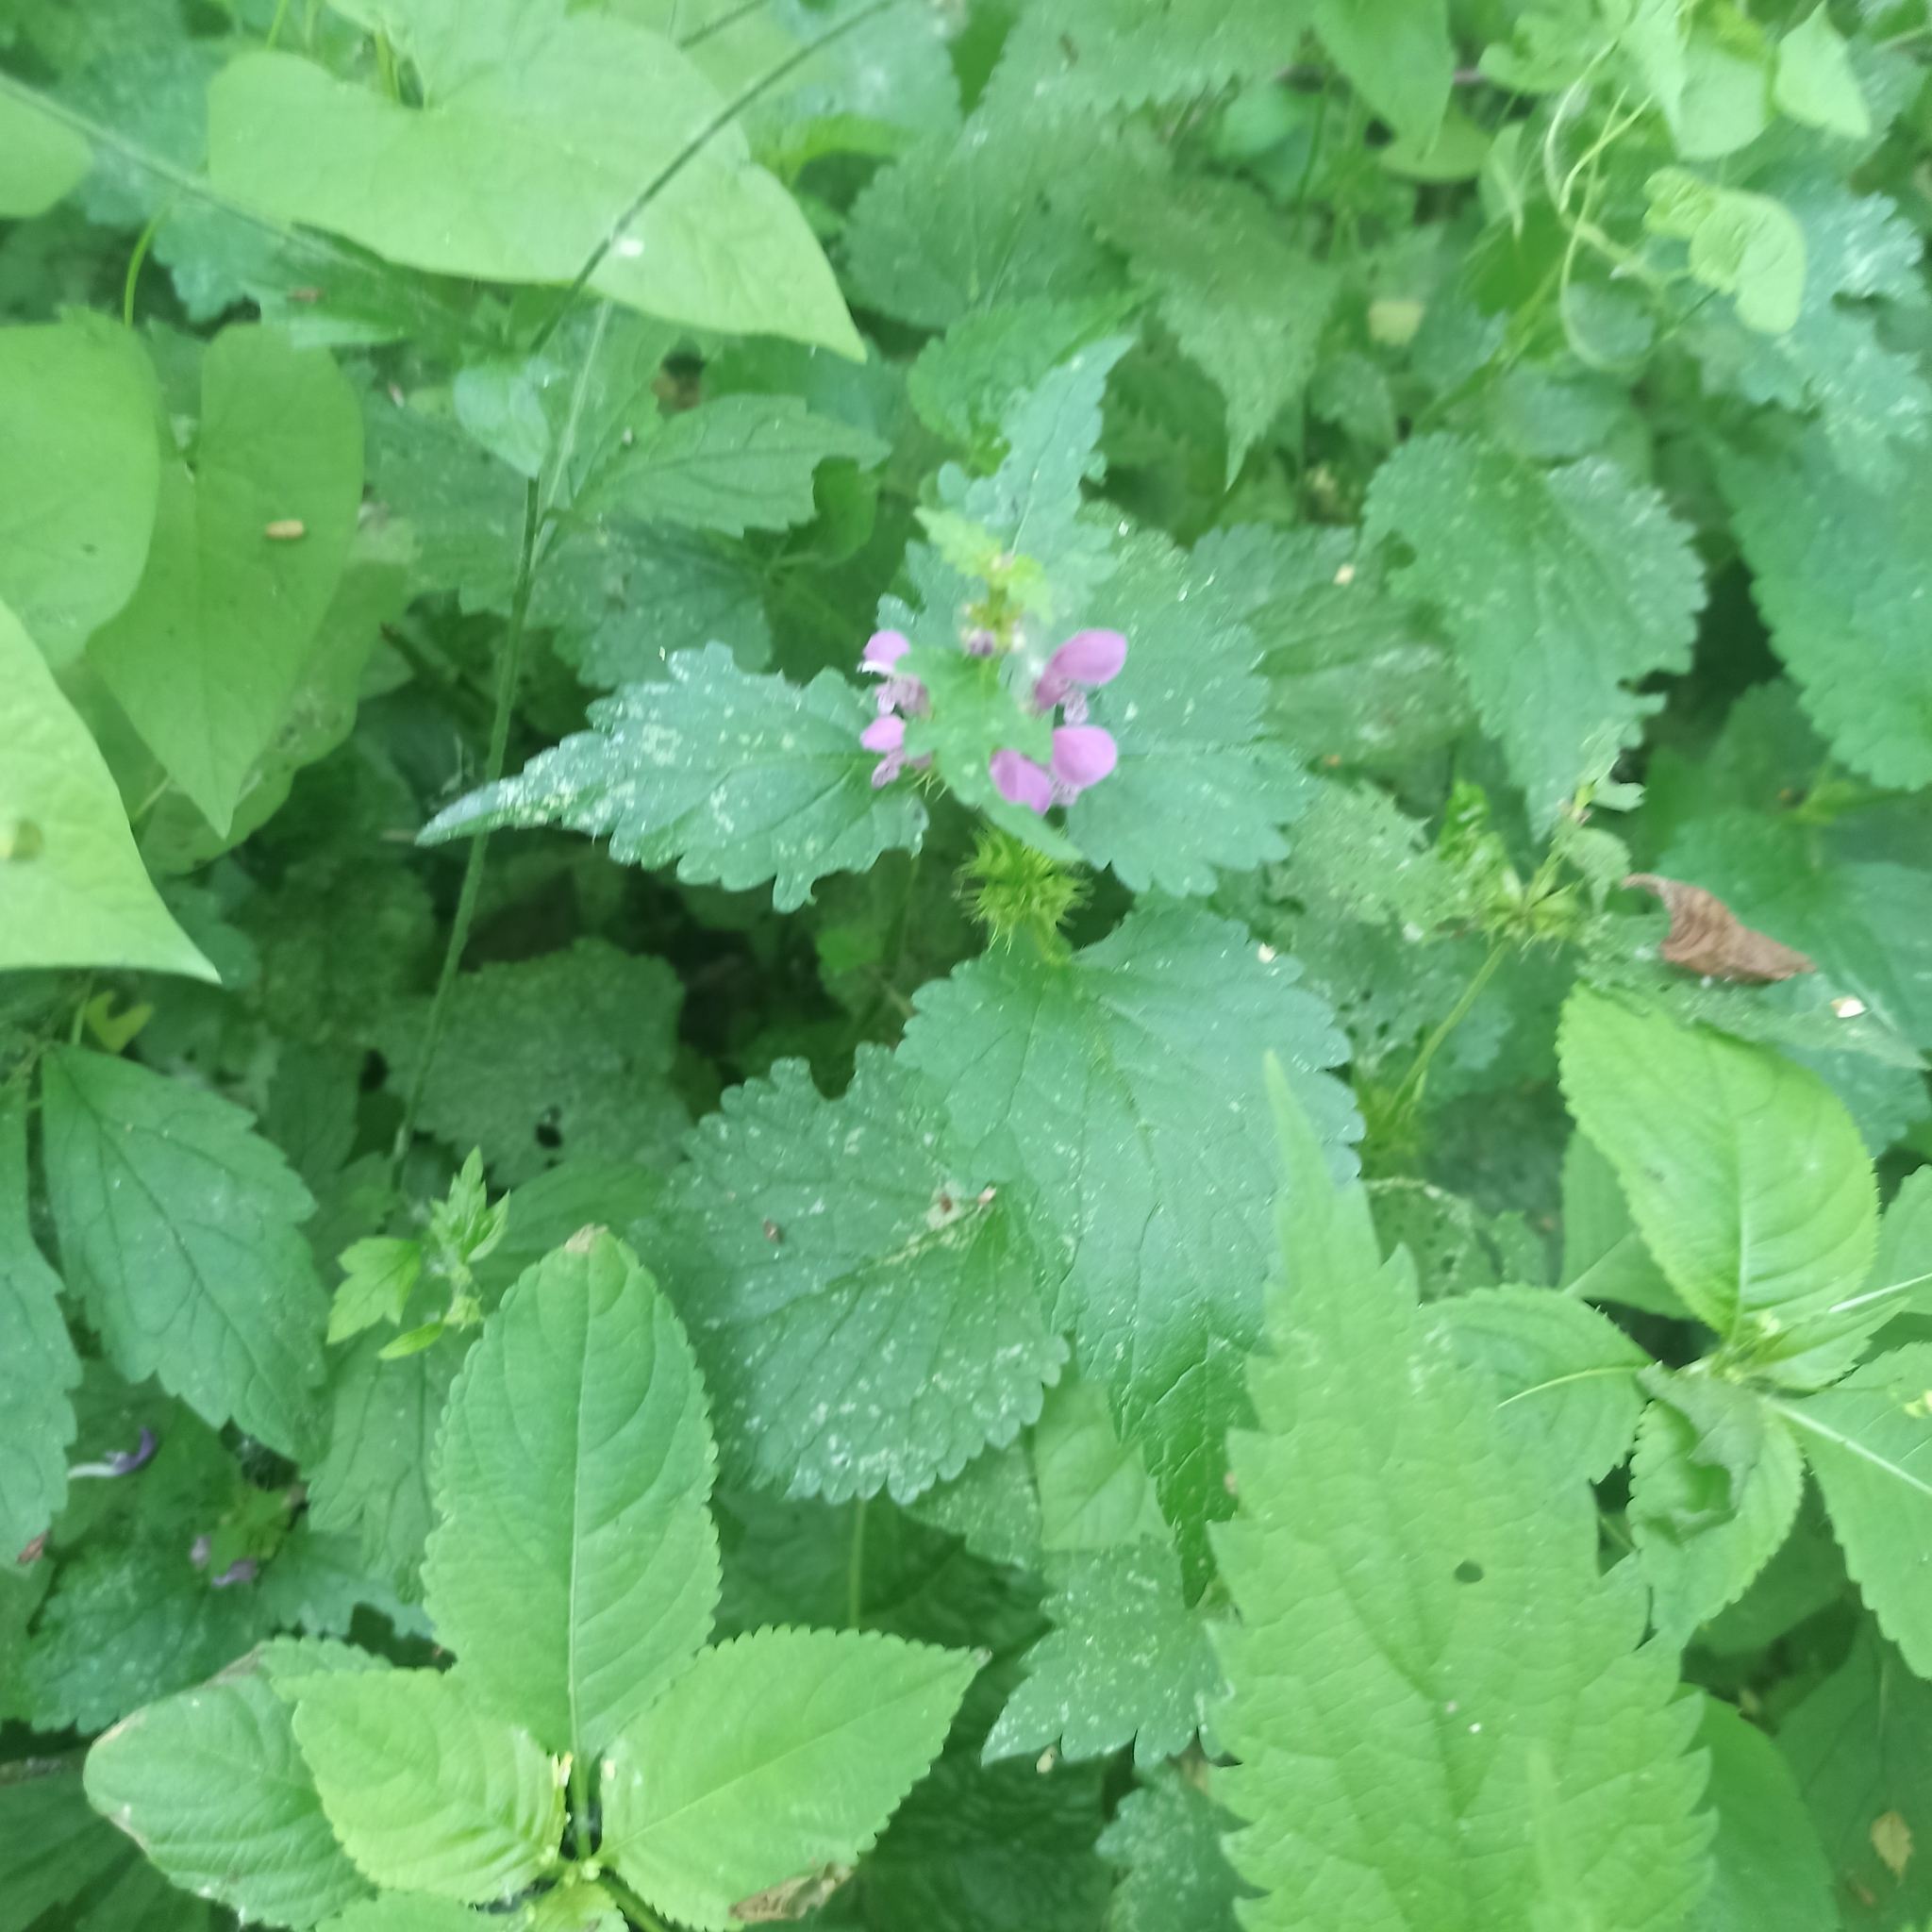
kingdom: Plantae
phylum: Tracheophyta
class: Magnoliopsida
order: Lamiales
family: Lamiaceae
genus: Lamium
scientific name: Lamium maculatum
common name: Spotted dead-nettle
